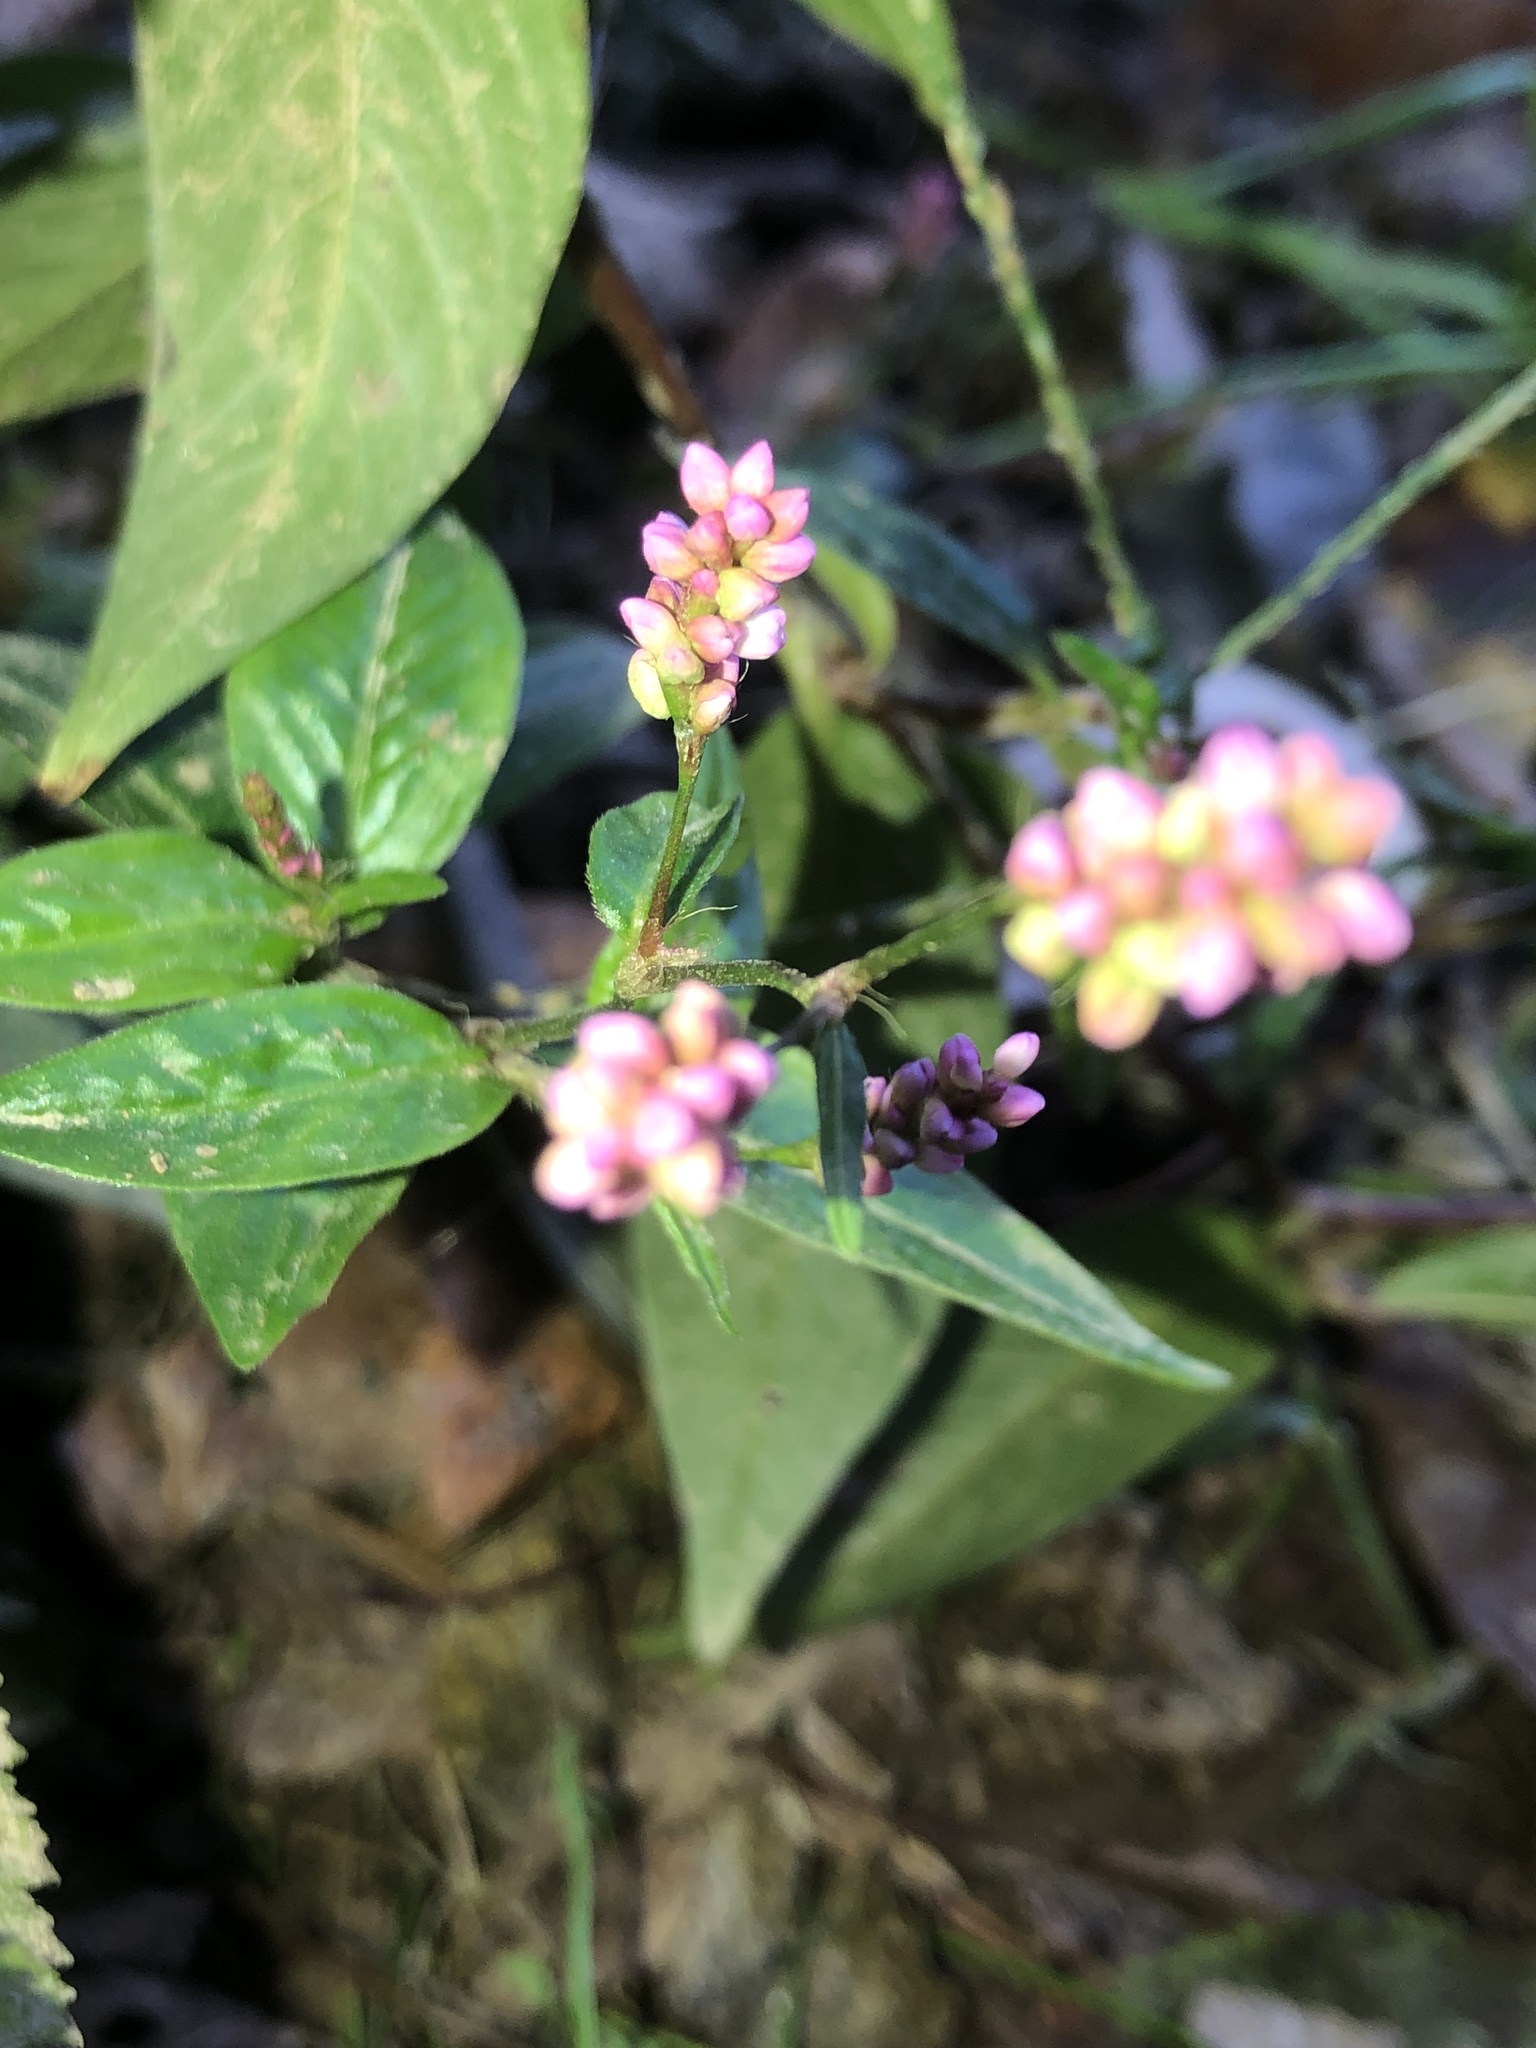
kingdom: Plantae
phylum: Tracheophyta
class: Magnoliopsida
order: Caryophyllales
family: Polygonaceae
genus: Persicaria
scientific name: Persicaria longiseta
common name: Bristly lady's-thumb
